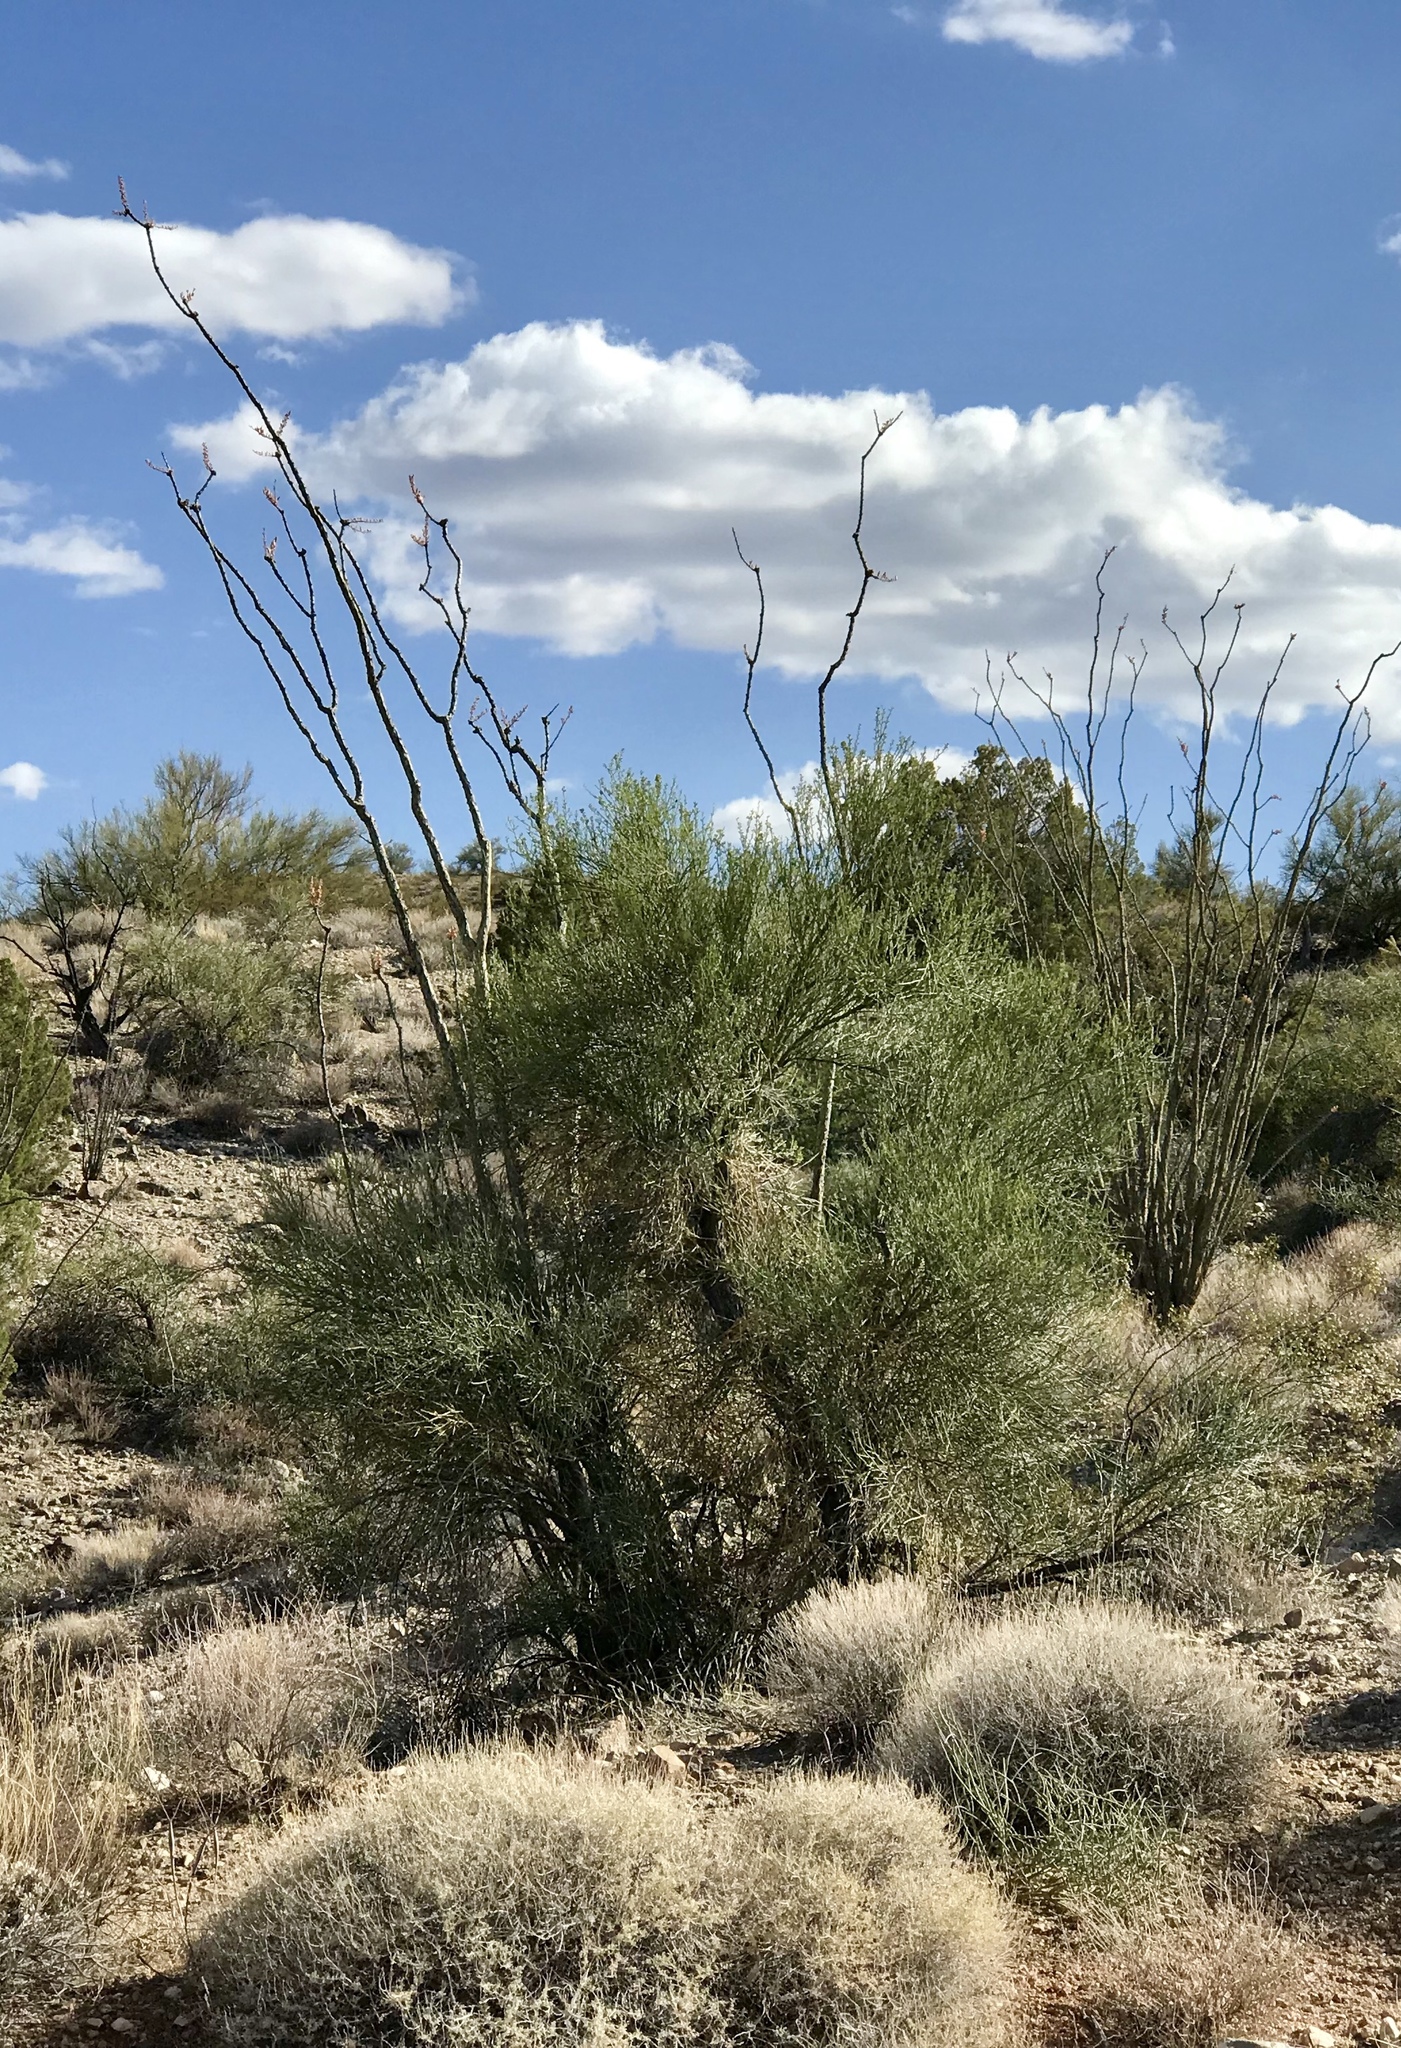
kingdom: Plantae
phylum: Tracheophyta
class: Magnoliopsida
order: Celastrales
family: Celastraceae
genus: Canotia
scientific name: Canotia holacantha
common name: Crucifixion thorns
